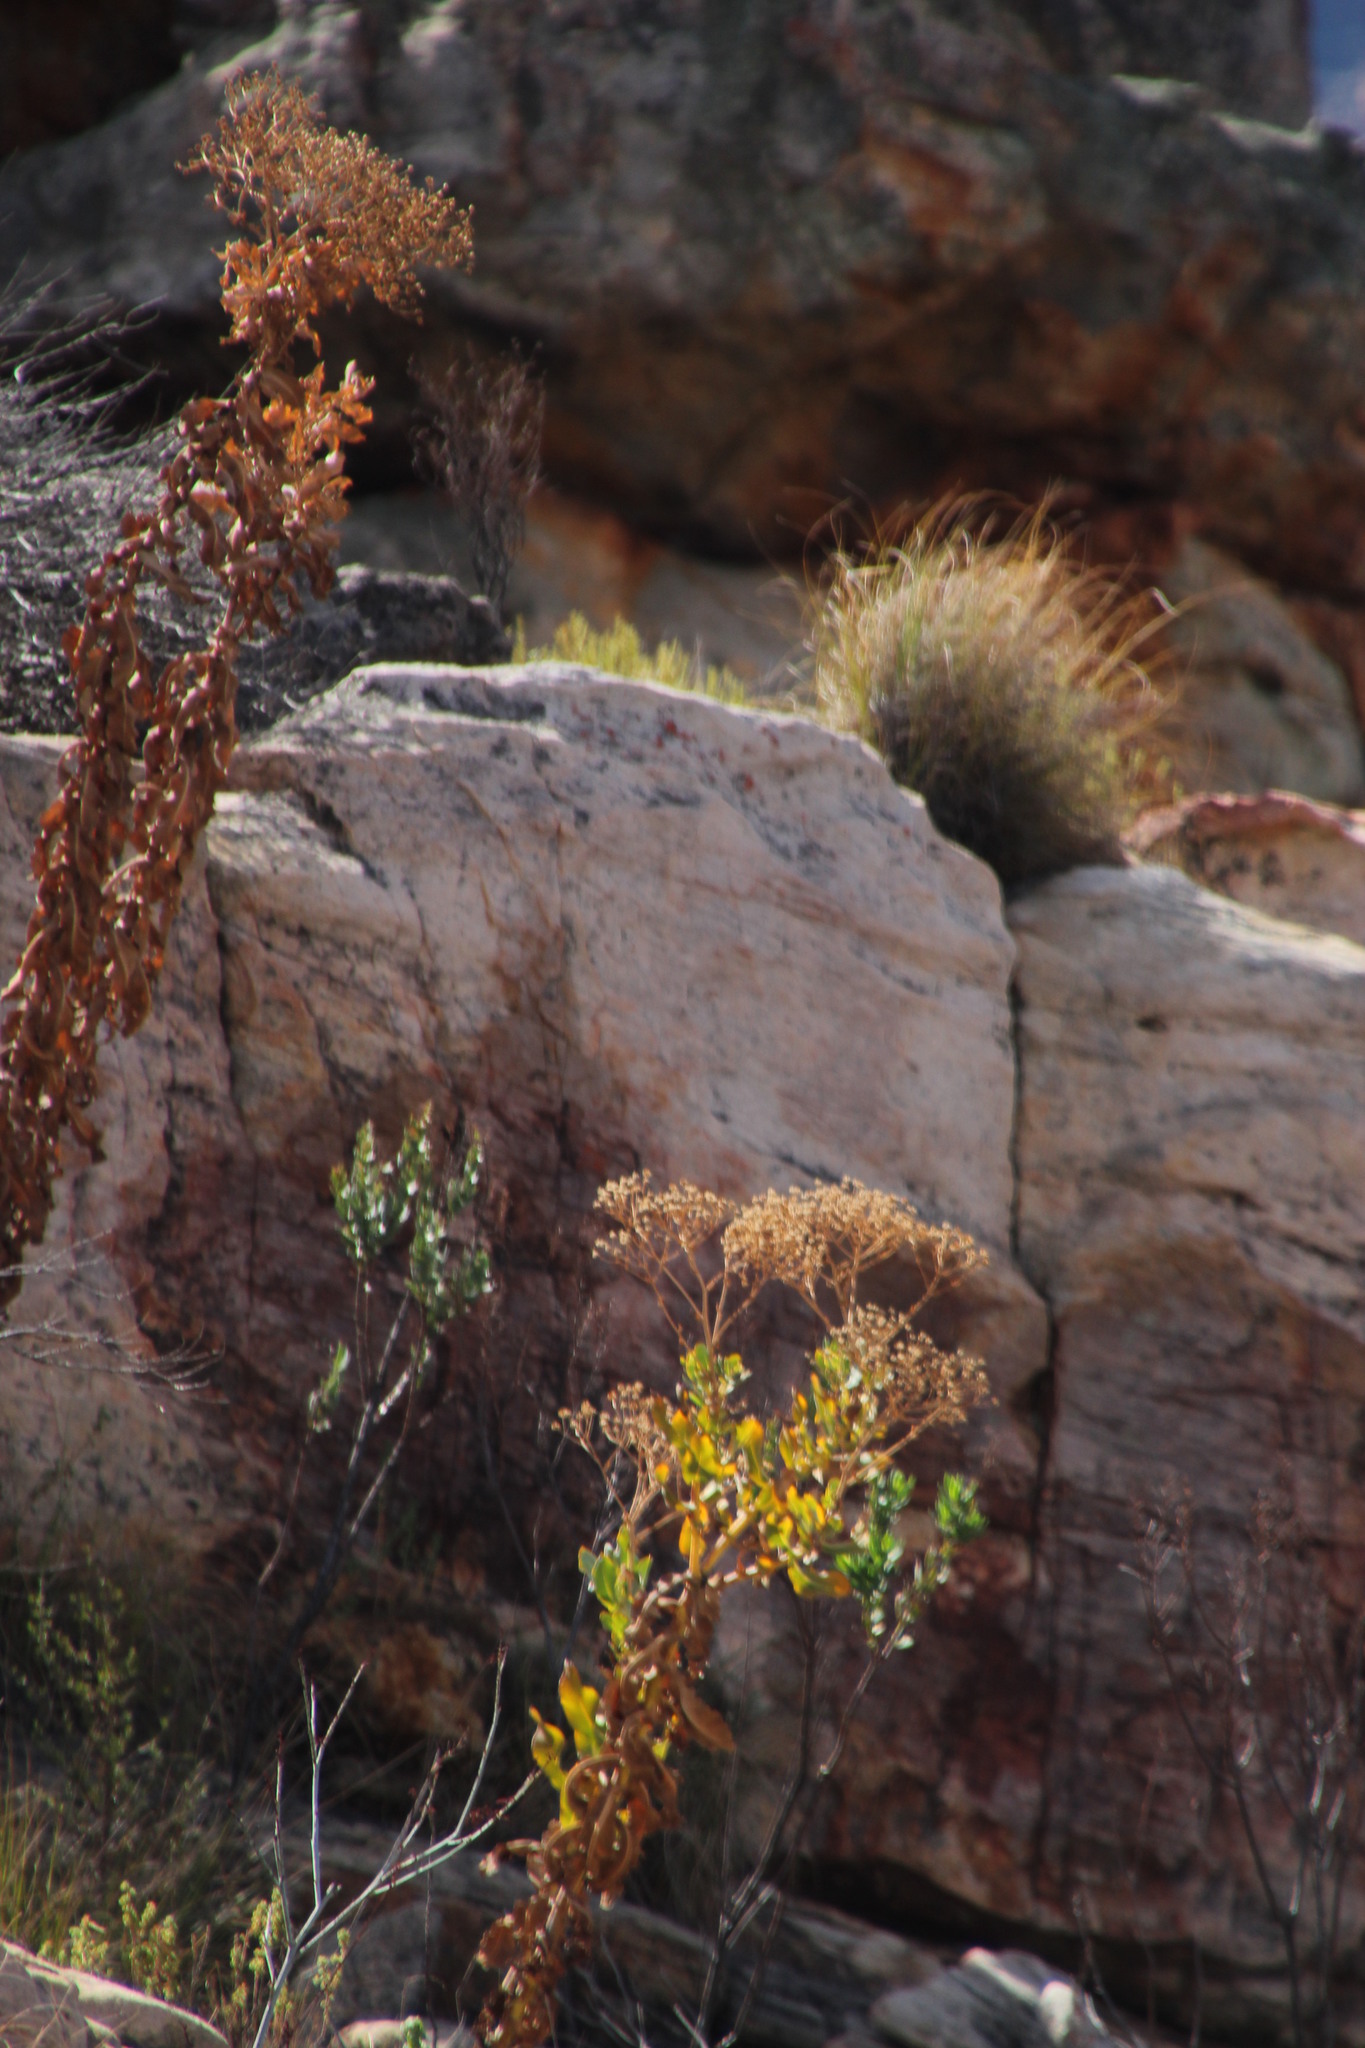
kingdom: Plantae
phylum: Tracheophyta
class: Magnoliopsida
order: Asterales
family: Asteraceae
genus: Othonna
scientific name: Othonna parviflora
